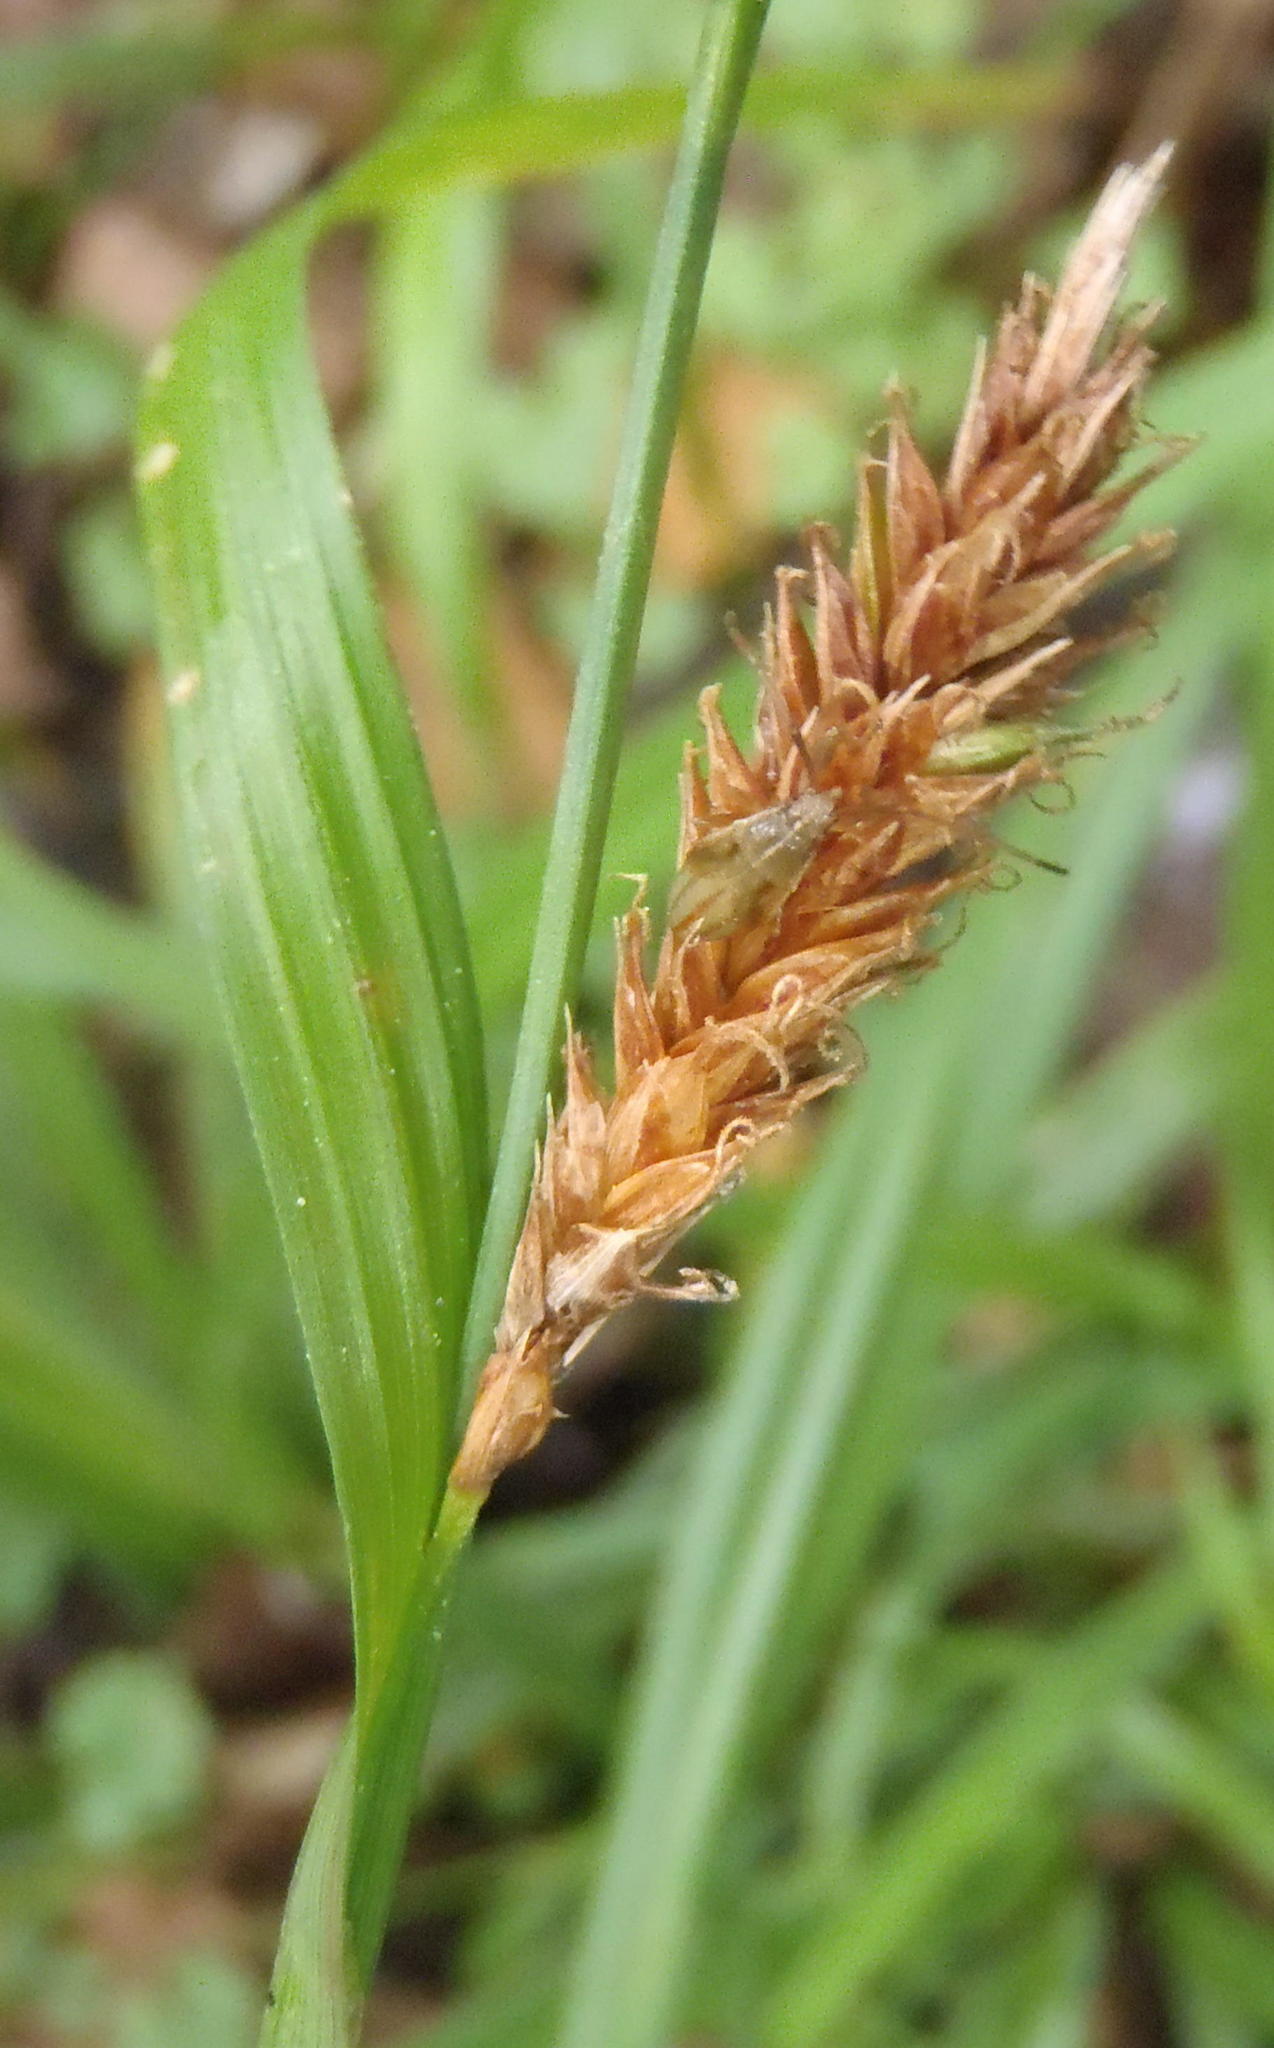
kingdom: Plantae
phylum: Tracheophyta
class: Liliopsida
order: Poales
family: Cyperaceae
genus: Carex
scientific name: Carex aethiopica
